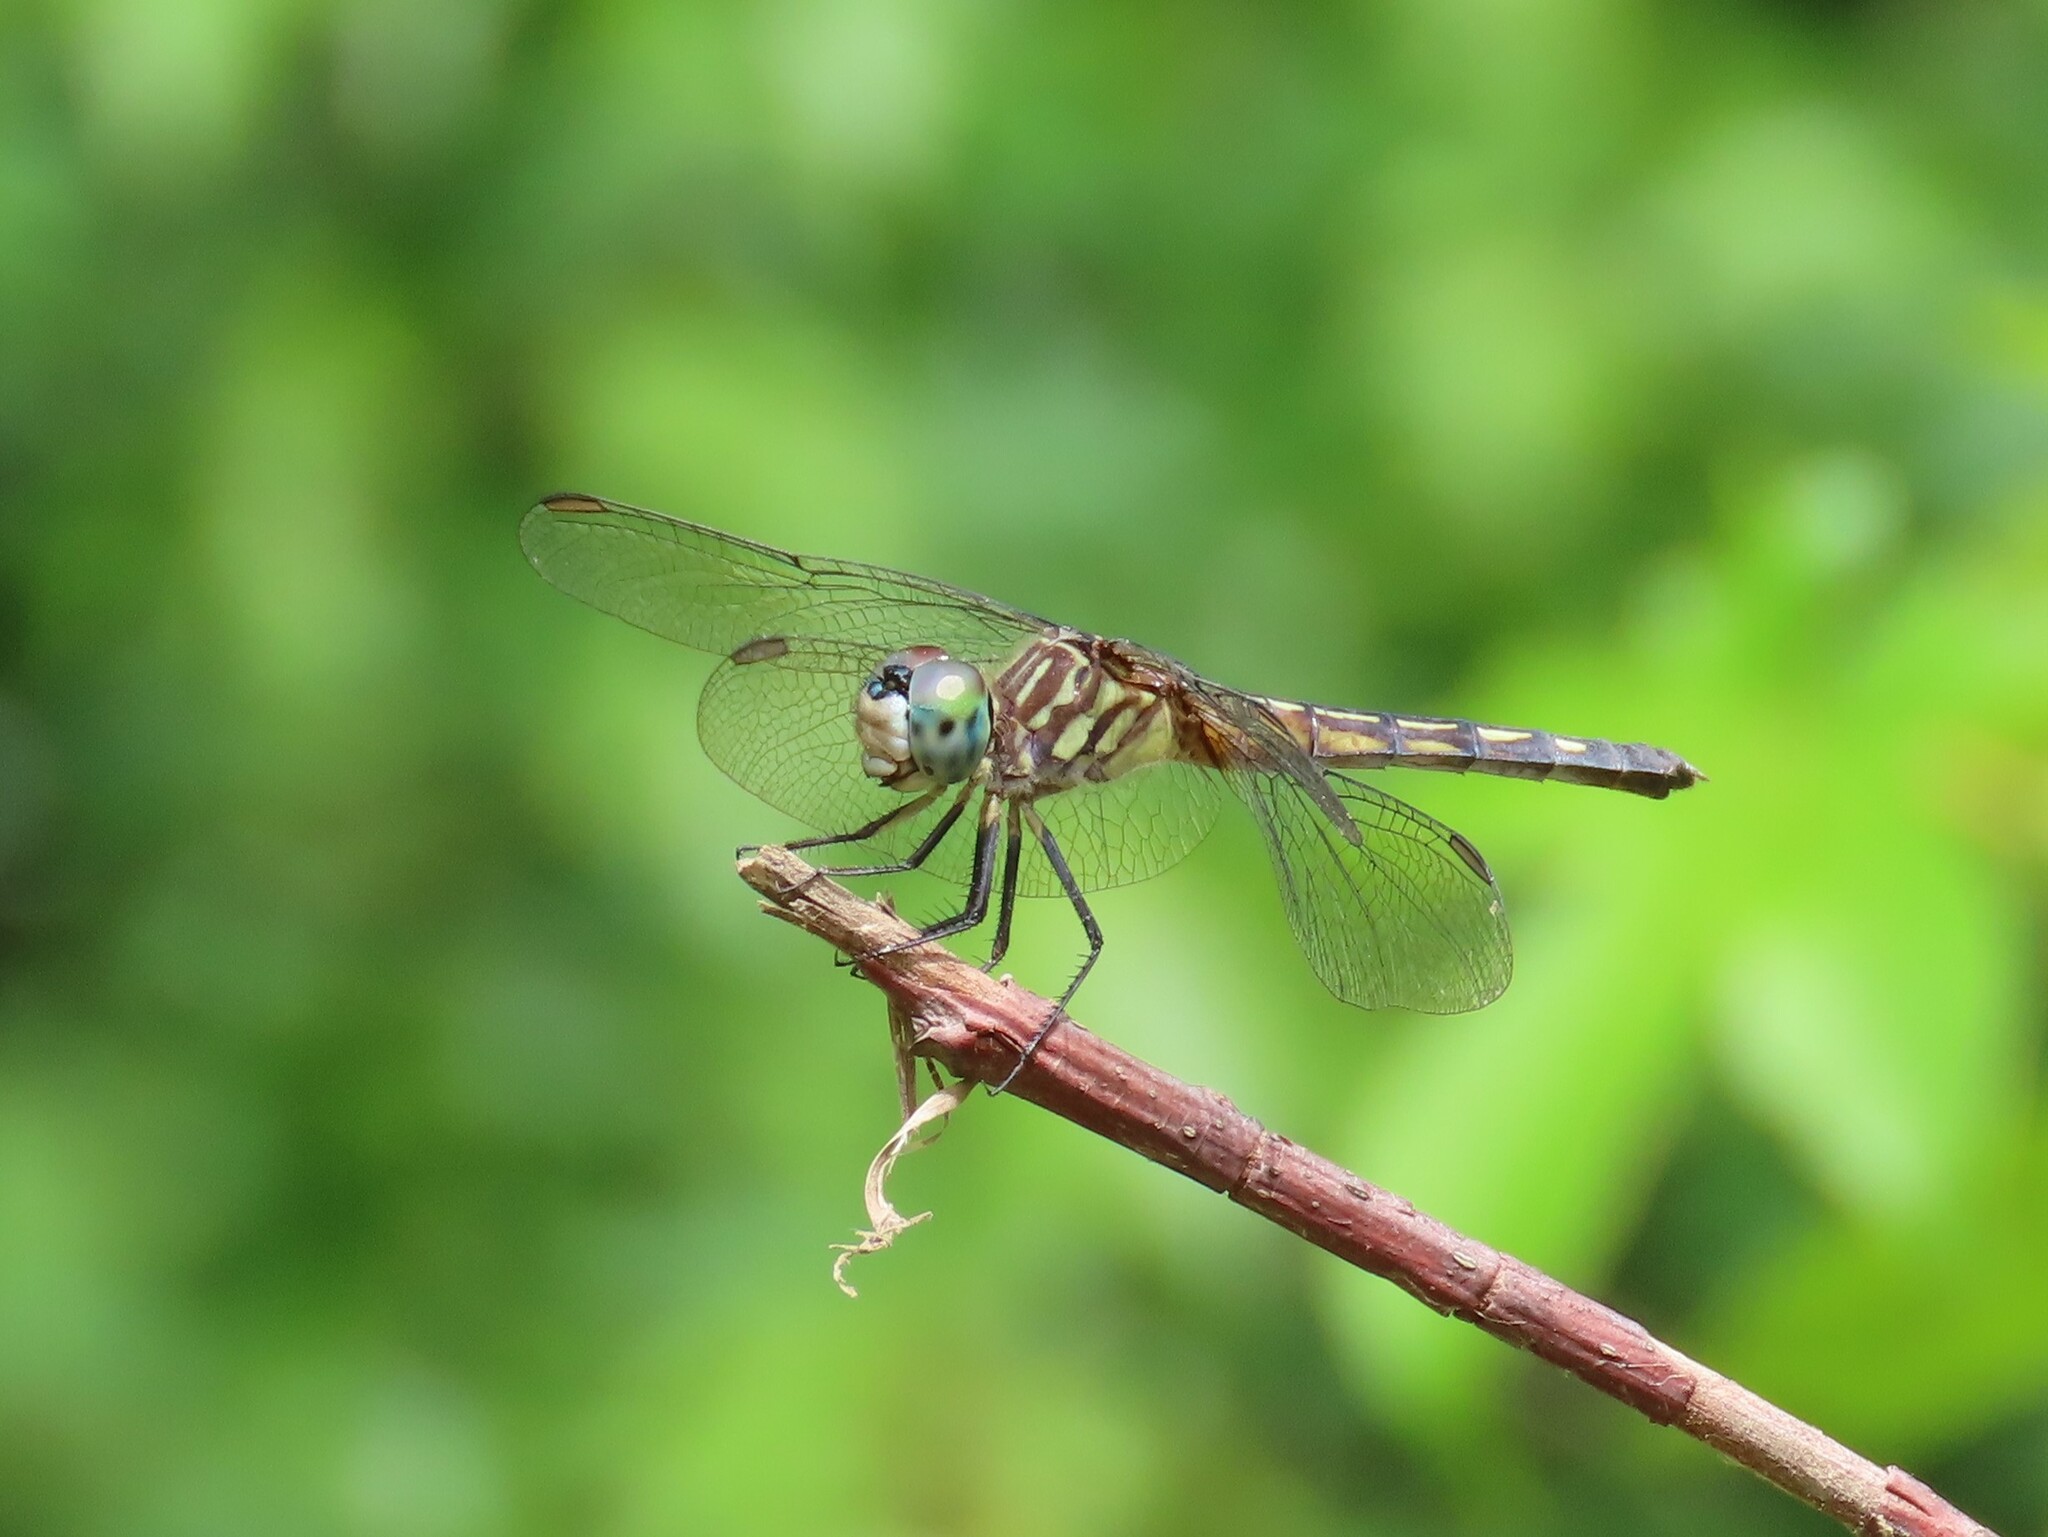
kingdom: Animalia
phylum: Arthropoda
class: Insecta
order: Odonata
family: Libellulidae
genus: Pachydiplax
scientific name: Pachydiplax longipennis
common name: Blue dasher
